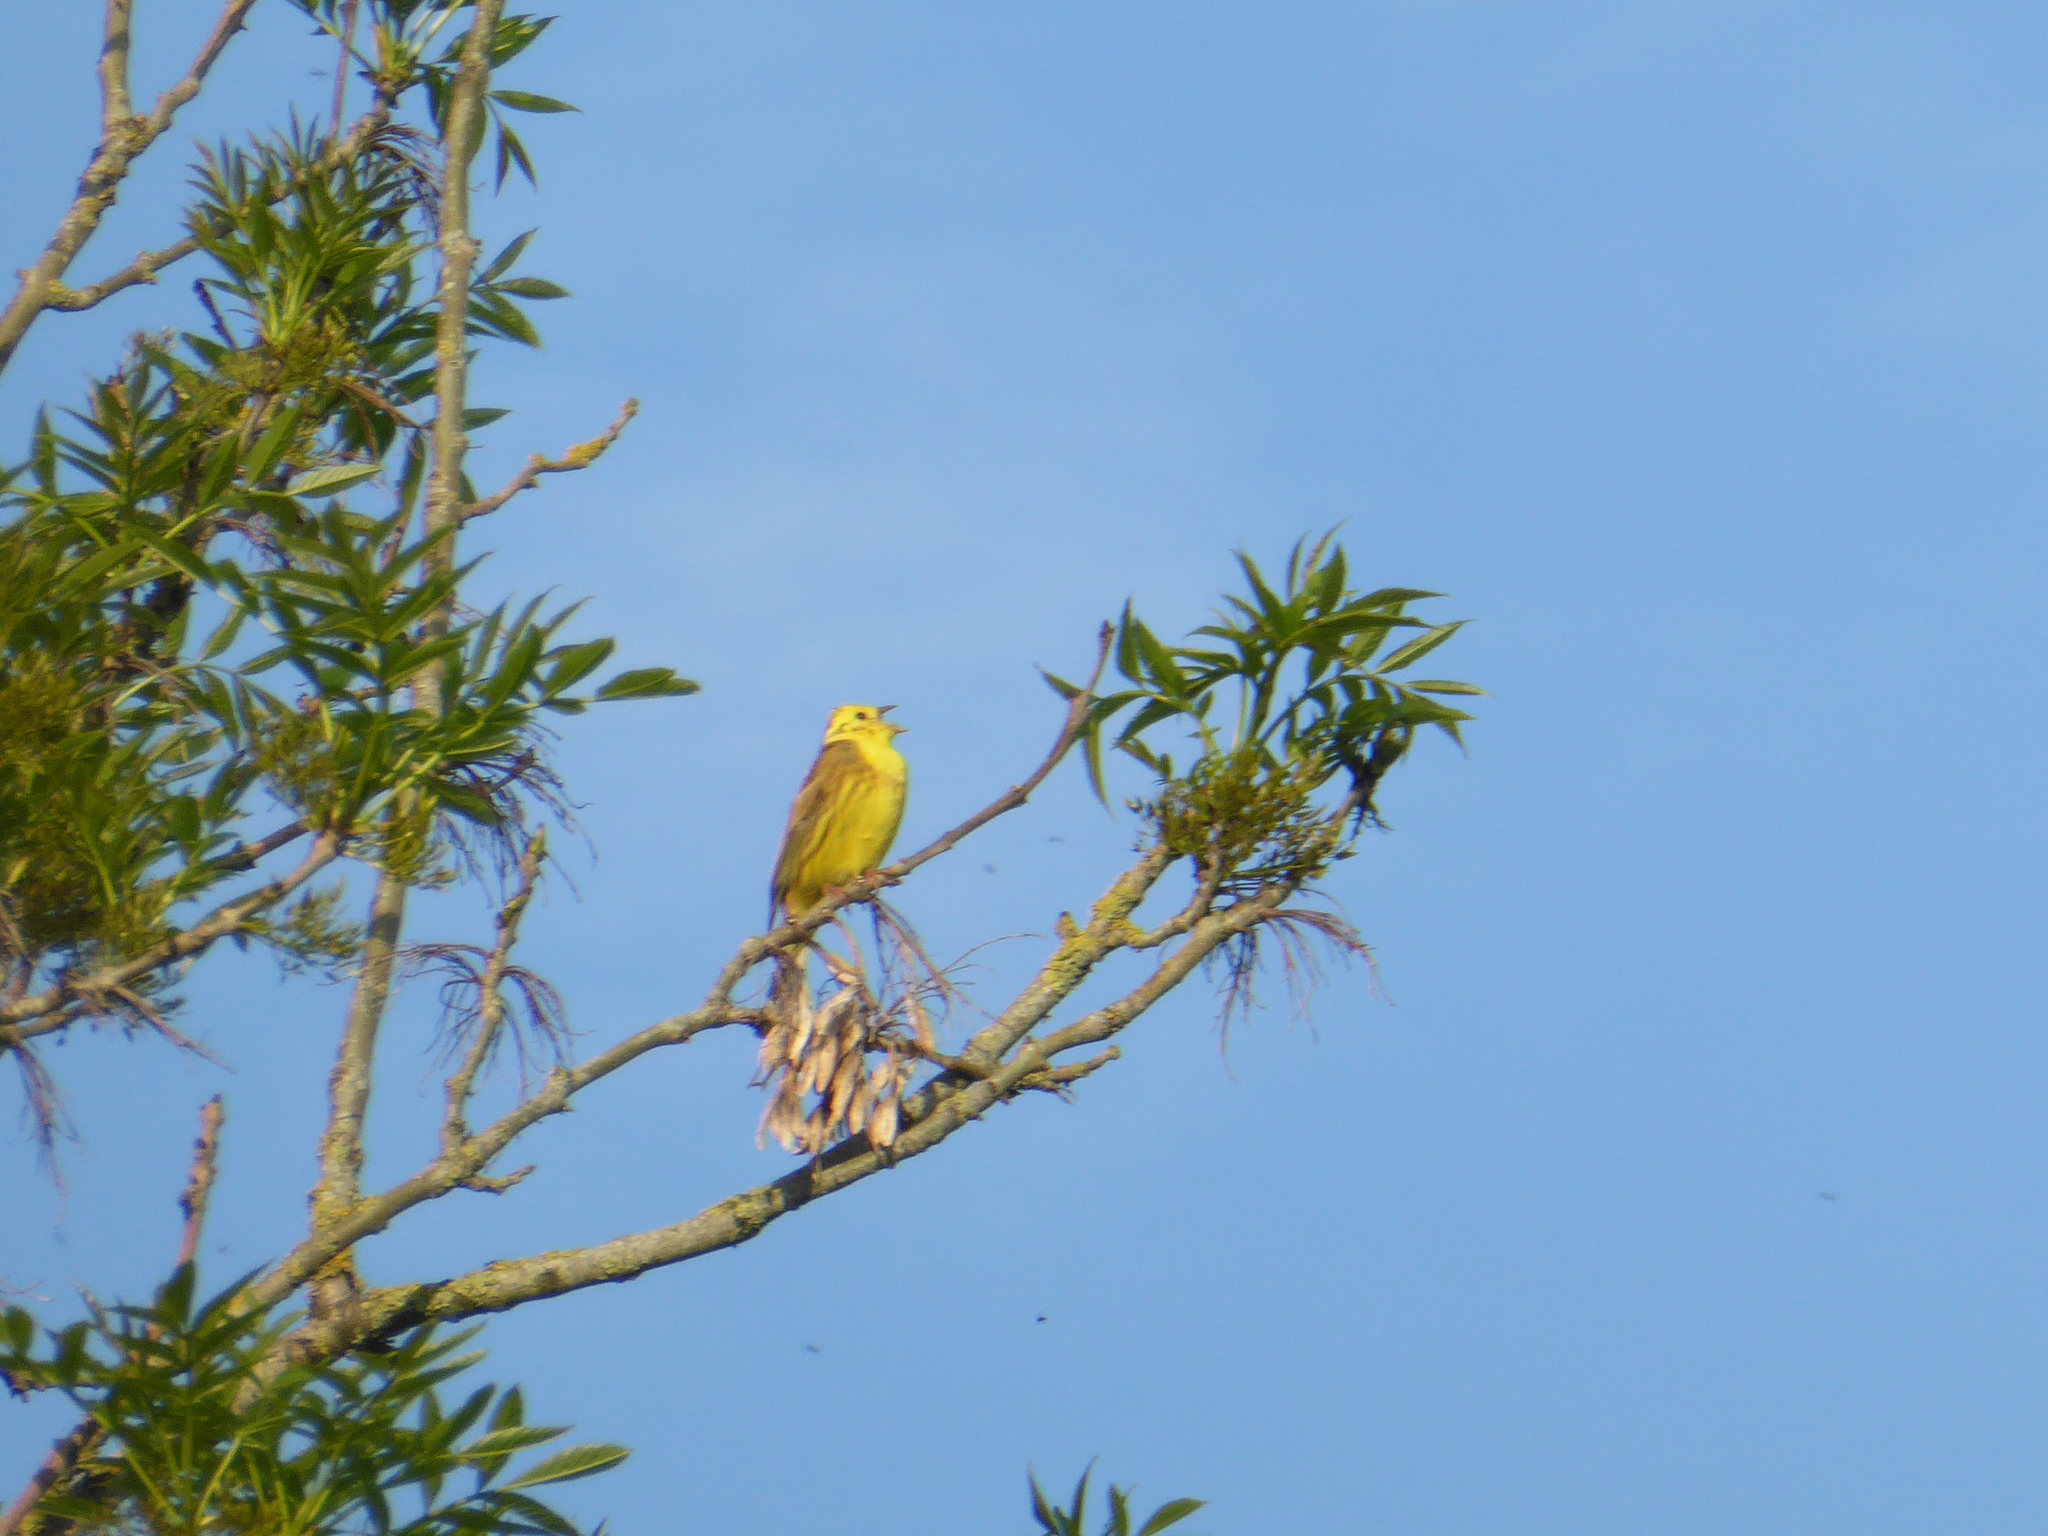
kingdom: Animalia
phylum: Chordata
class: Aves
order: Passeriformes
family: Emberizidae
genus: Emberiza
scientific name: Emberiza citrinella
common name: Yellowhammer
